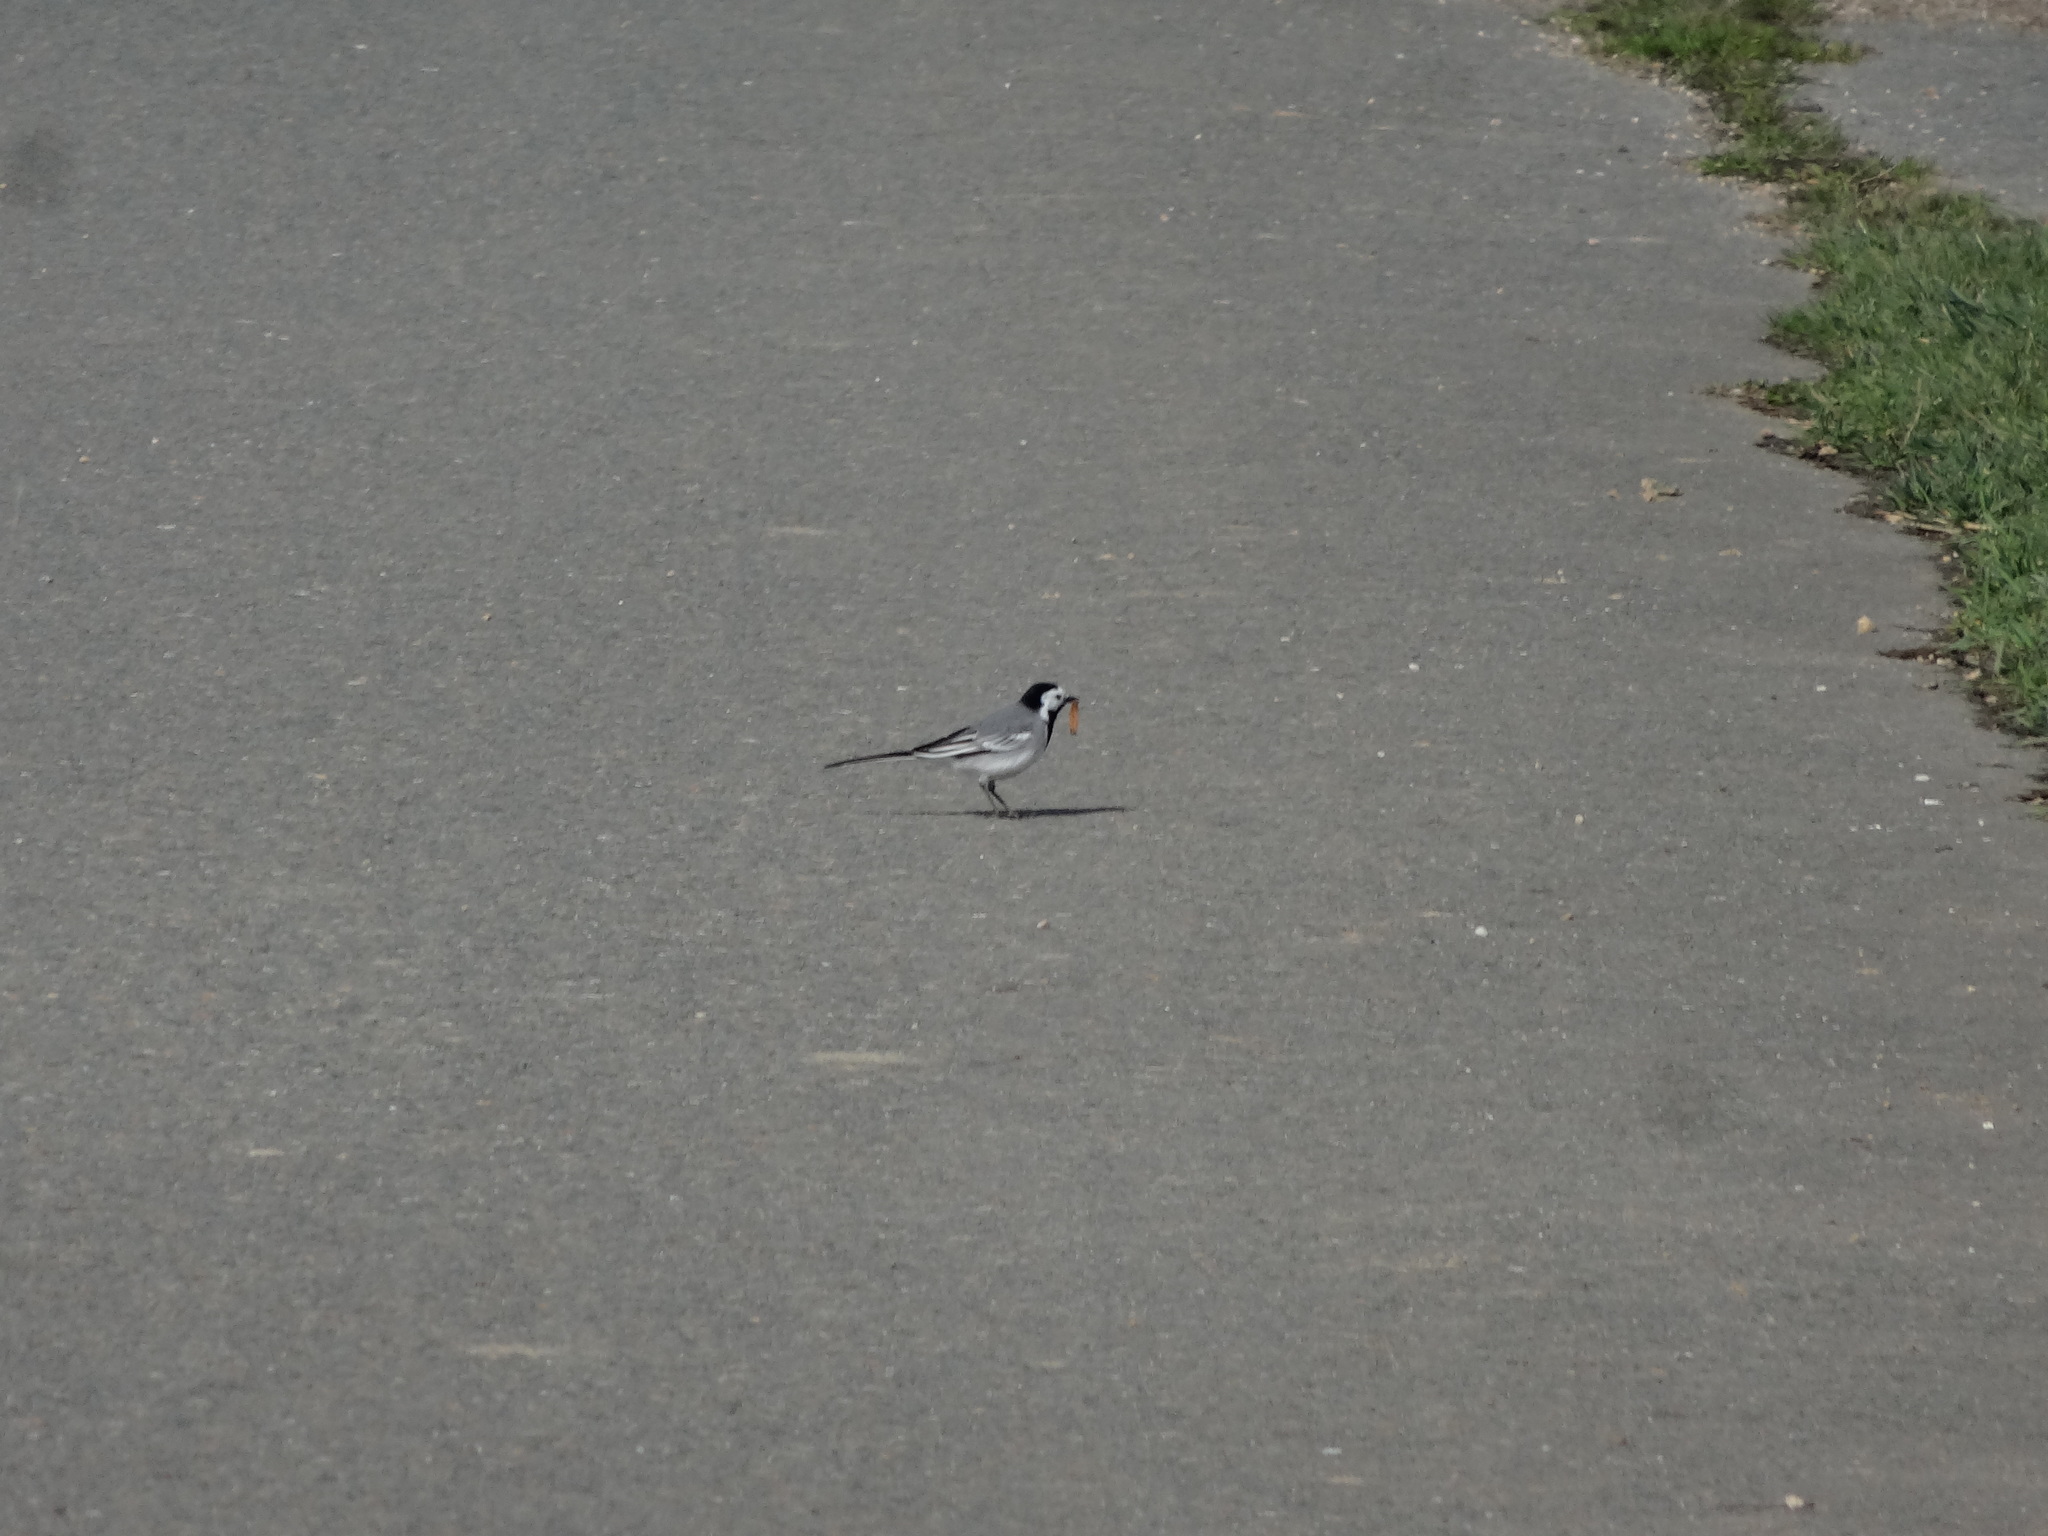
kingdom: Animalia
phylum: Chordata
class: Aves
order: Passeriformes
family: Motacillidae
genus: Motacilla
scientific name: Motacilla alba
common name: White wagtail
